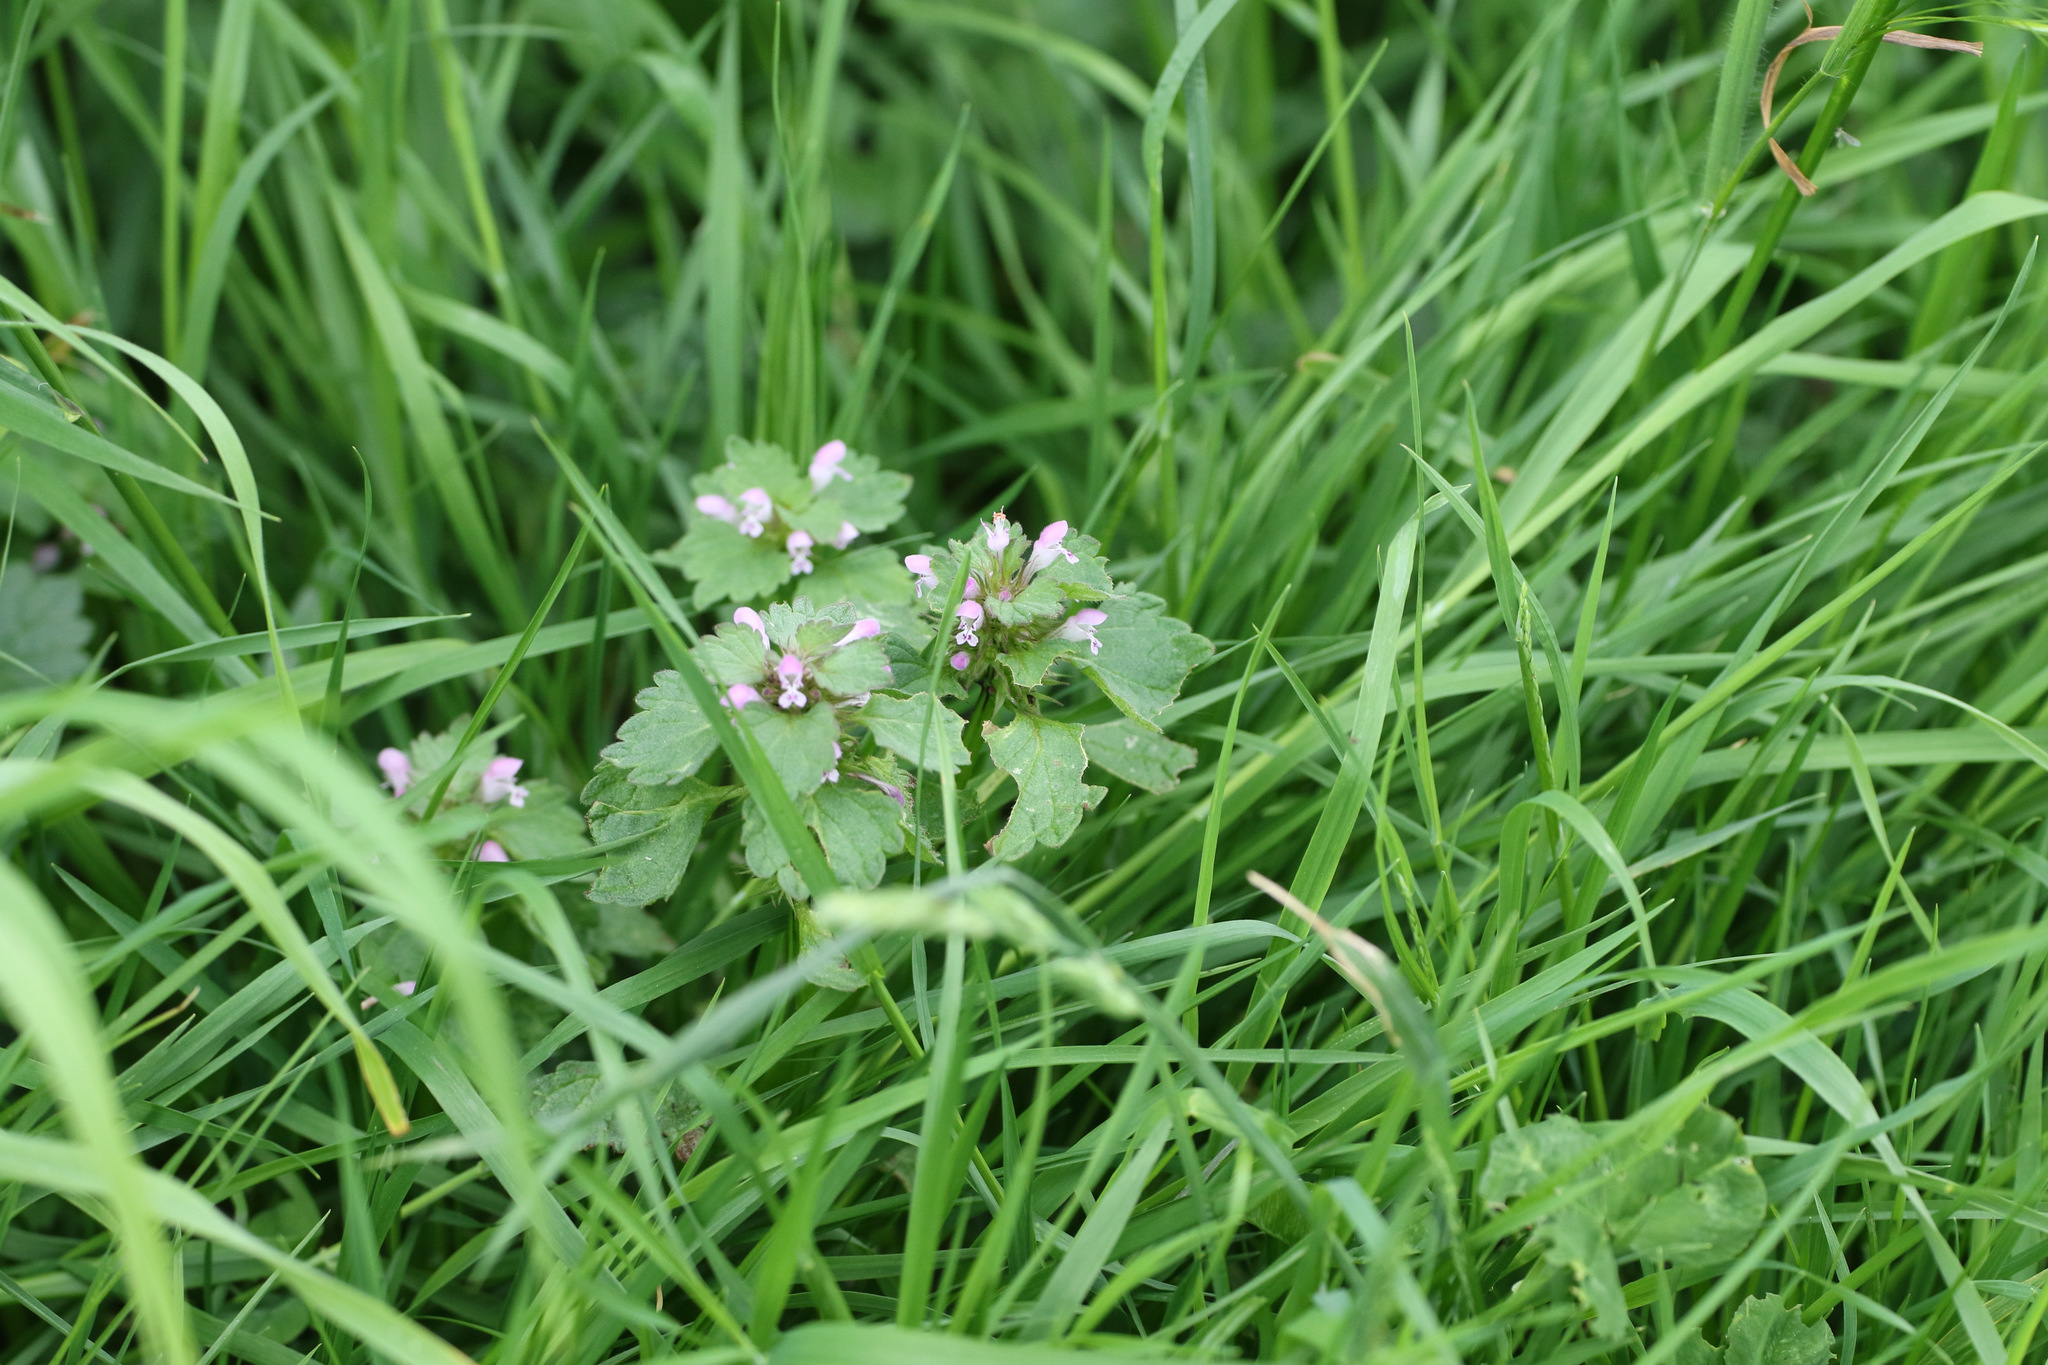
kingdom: Plantae
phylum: Tracheophyta
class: Magnoliopsida
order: Lamiales
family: Lamiaceae
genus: Lamium
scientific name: Lamium purpureum
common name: Red dead-nettle
